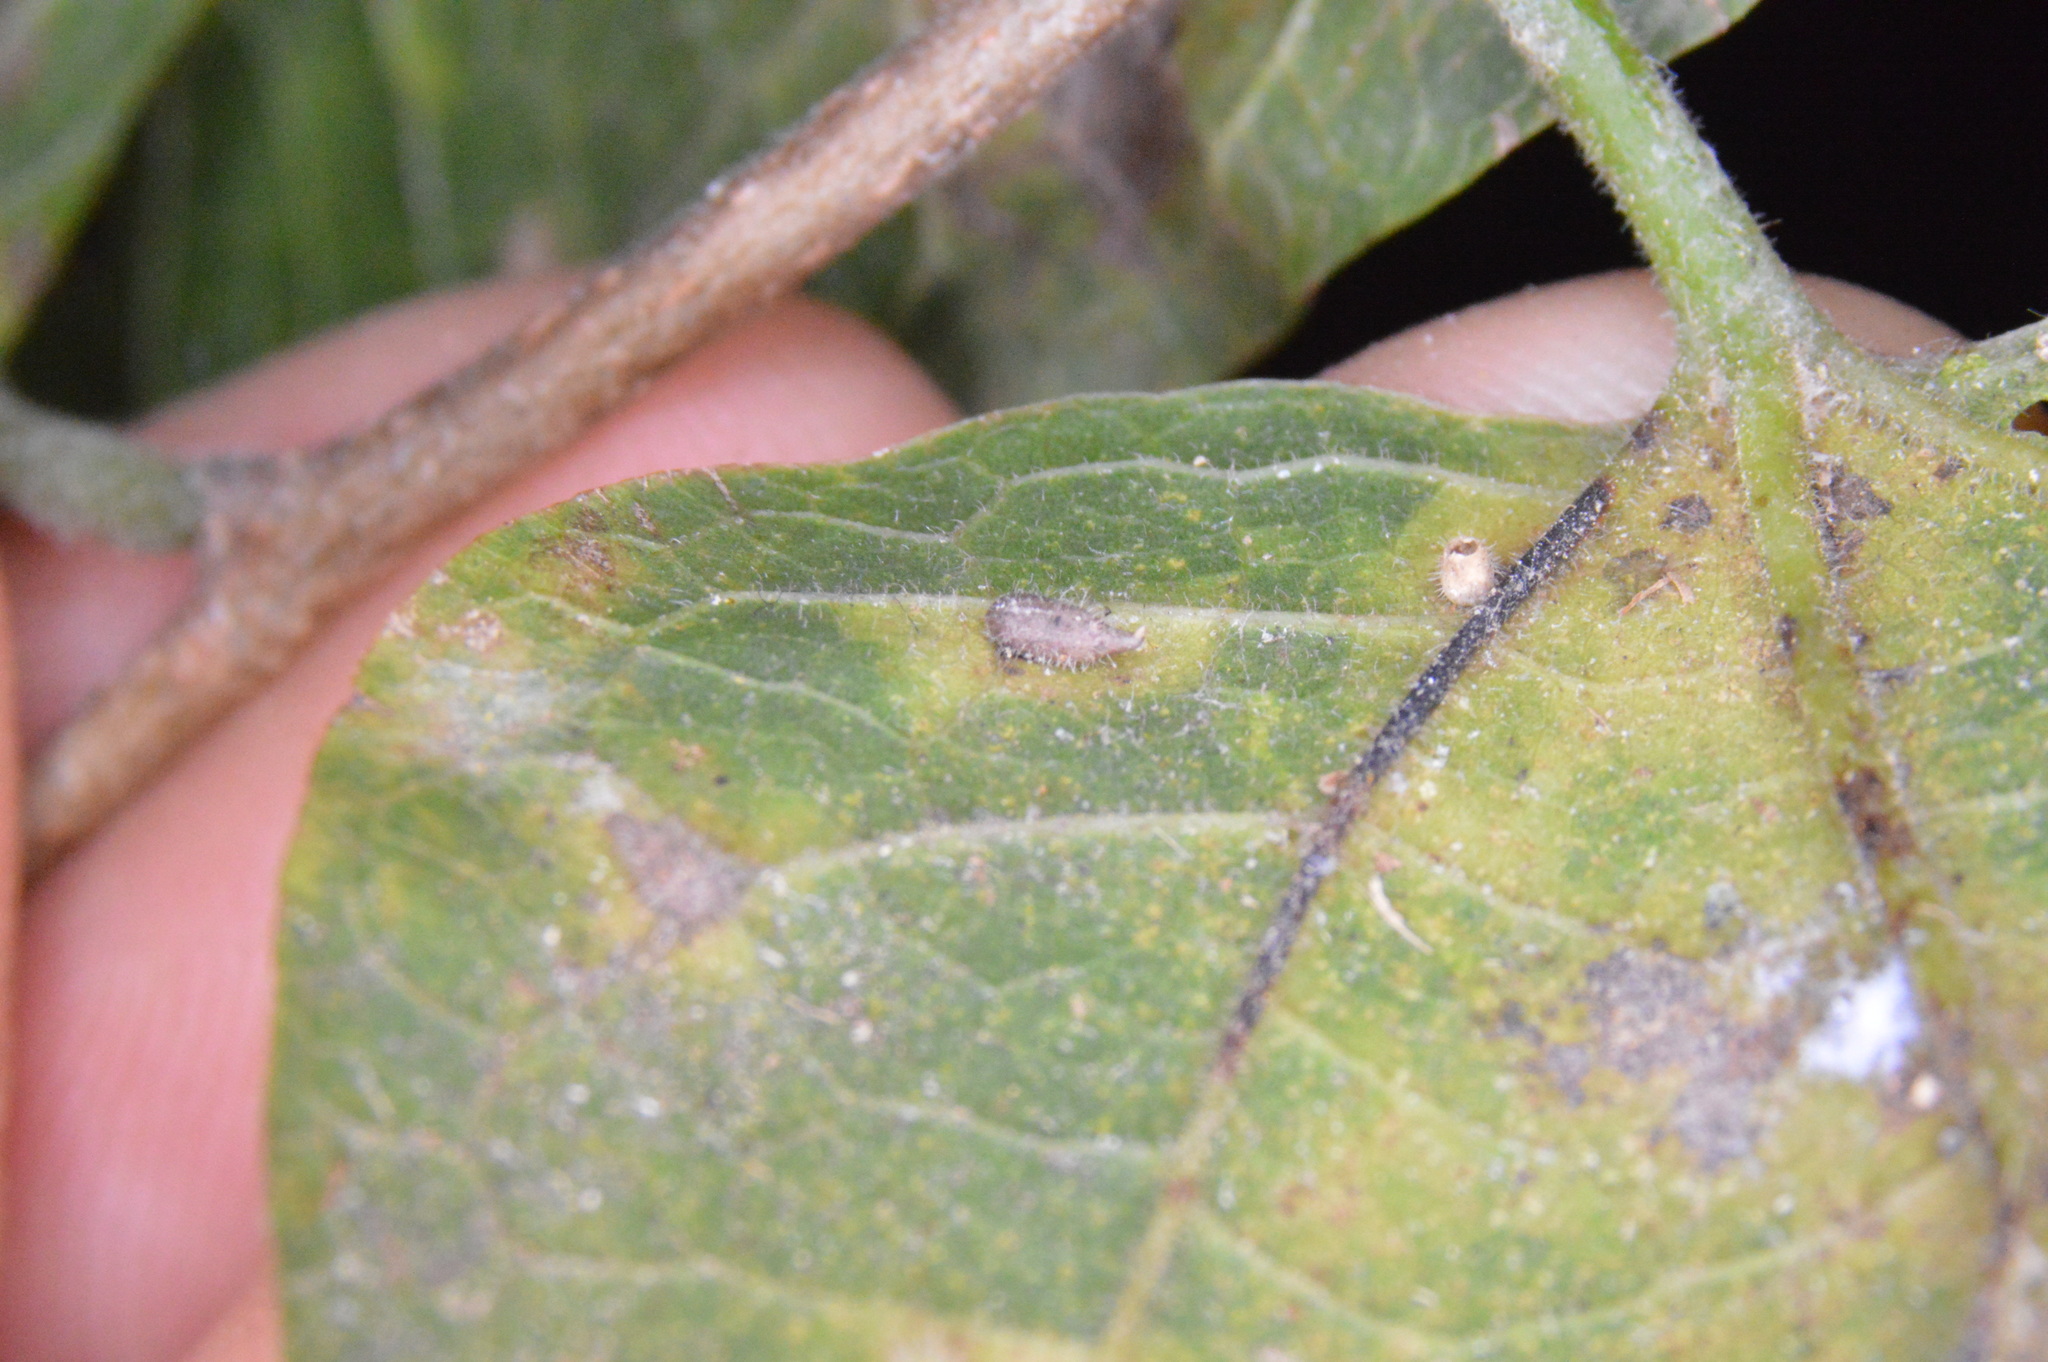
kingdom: Animalia
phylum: Arthropoda
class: Insecta
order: Diptera
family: Cecidomyiidae
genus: Celticecis
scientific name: Celticecis supina
